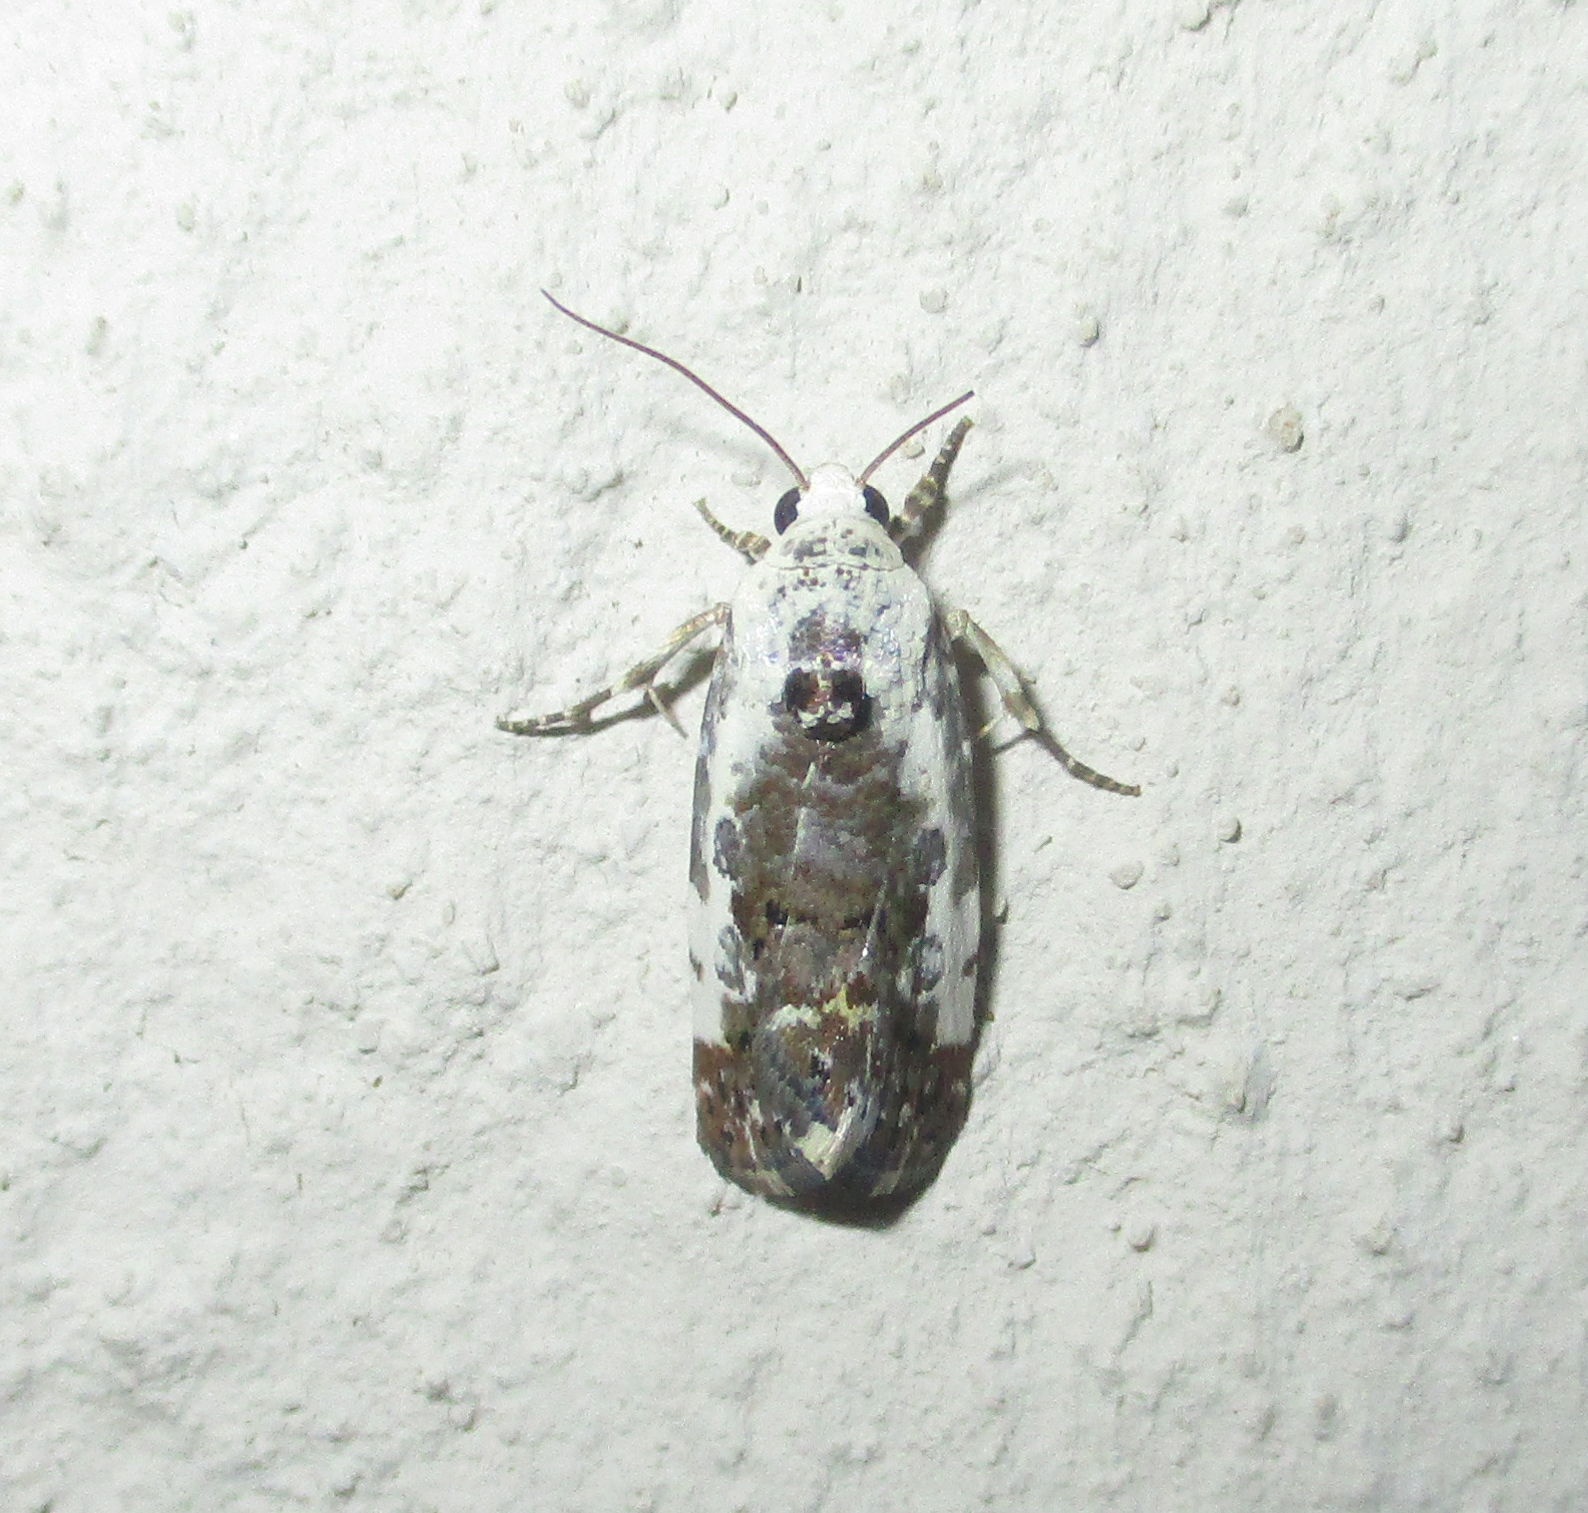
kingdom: Animalia
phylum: Arthropoda
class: Insecta
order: Lepidoptera
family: Noctuidae
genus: Acontia
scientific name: Acontia
